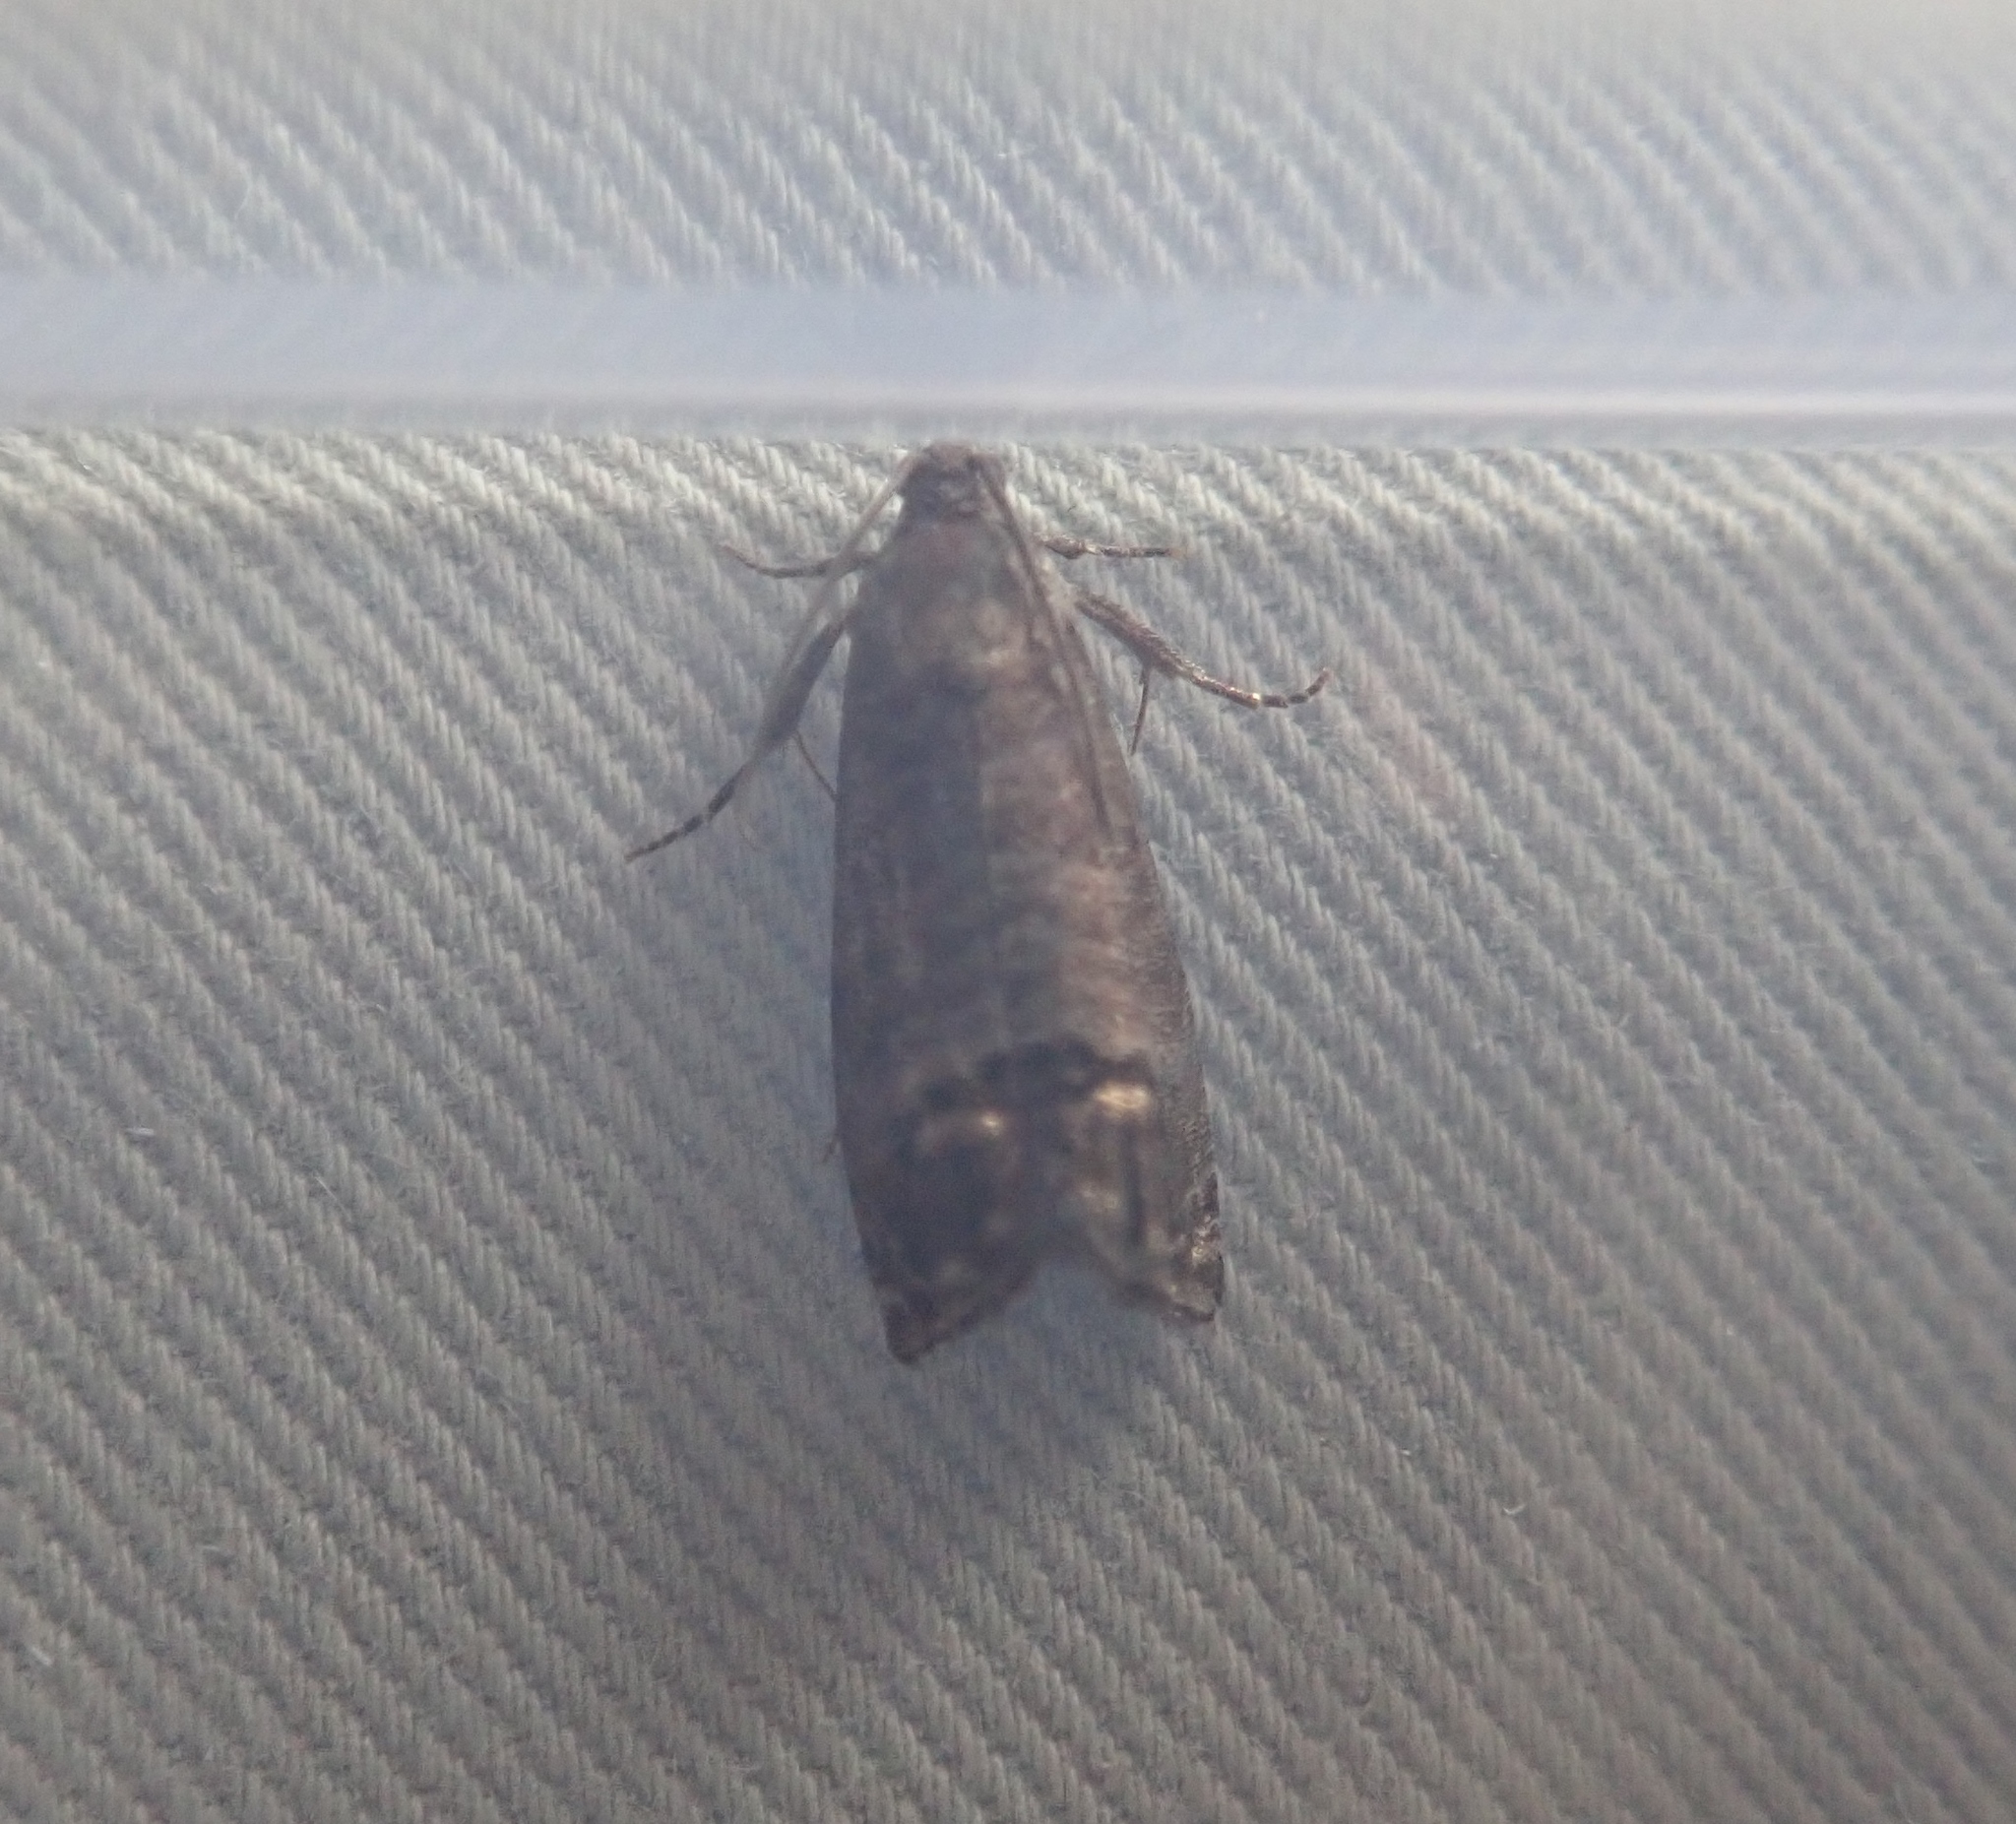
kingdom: Animalia
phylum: Arthropoda
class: Insecta
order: Lepidoptera
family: Tortricidae
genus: Cydia
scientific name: Cydia pomonella
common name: Codling moth
